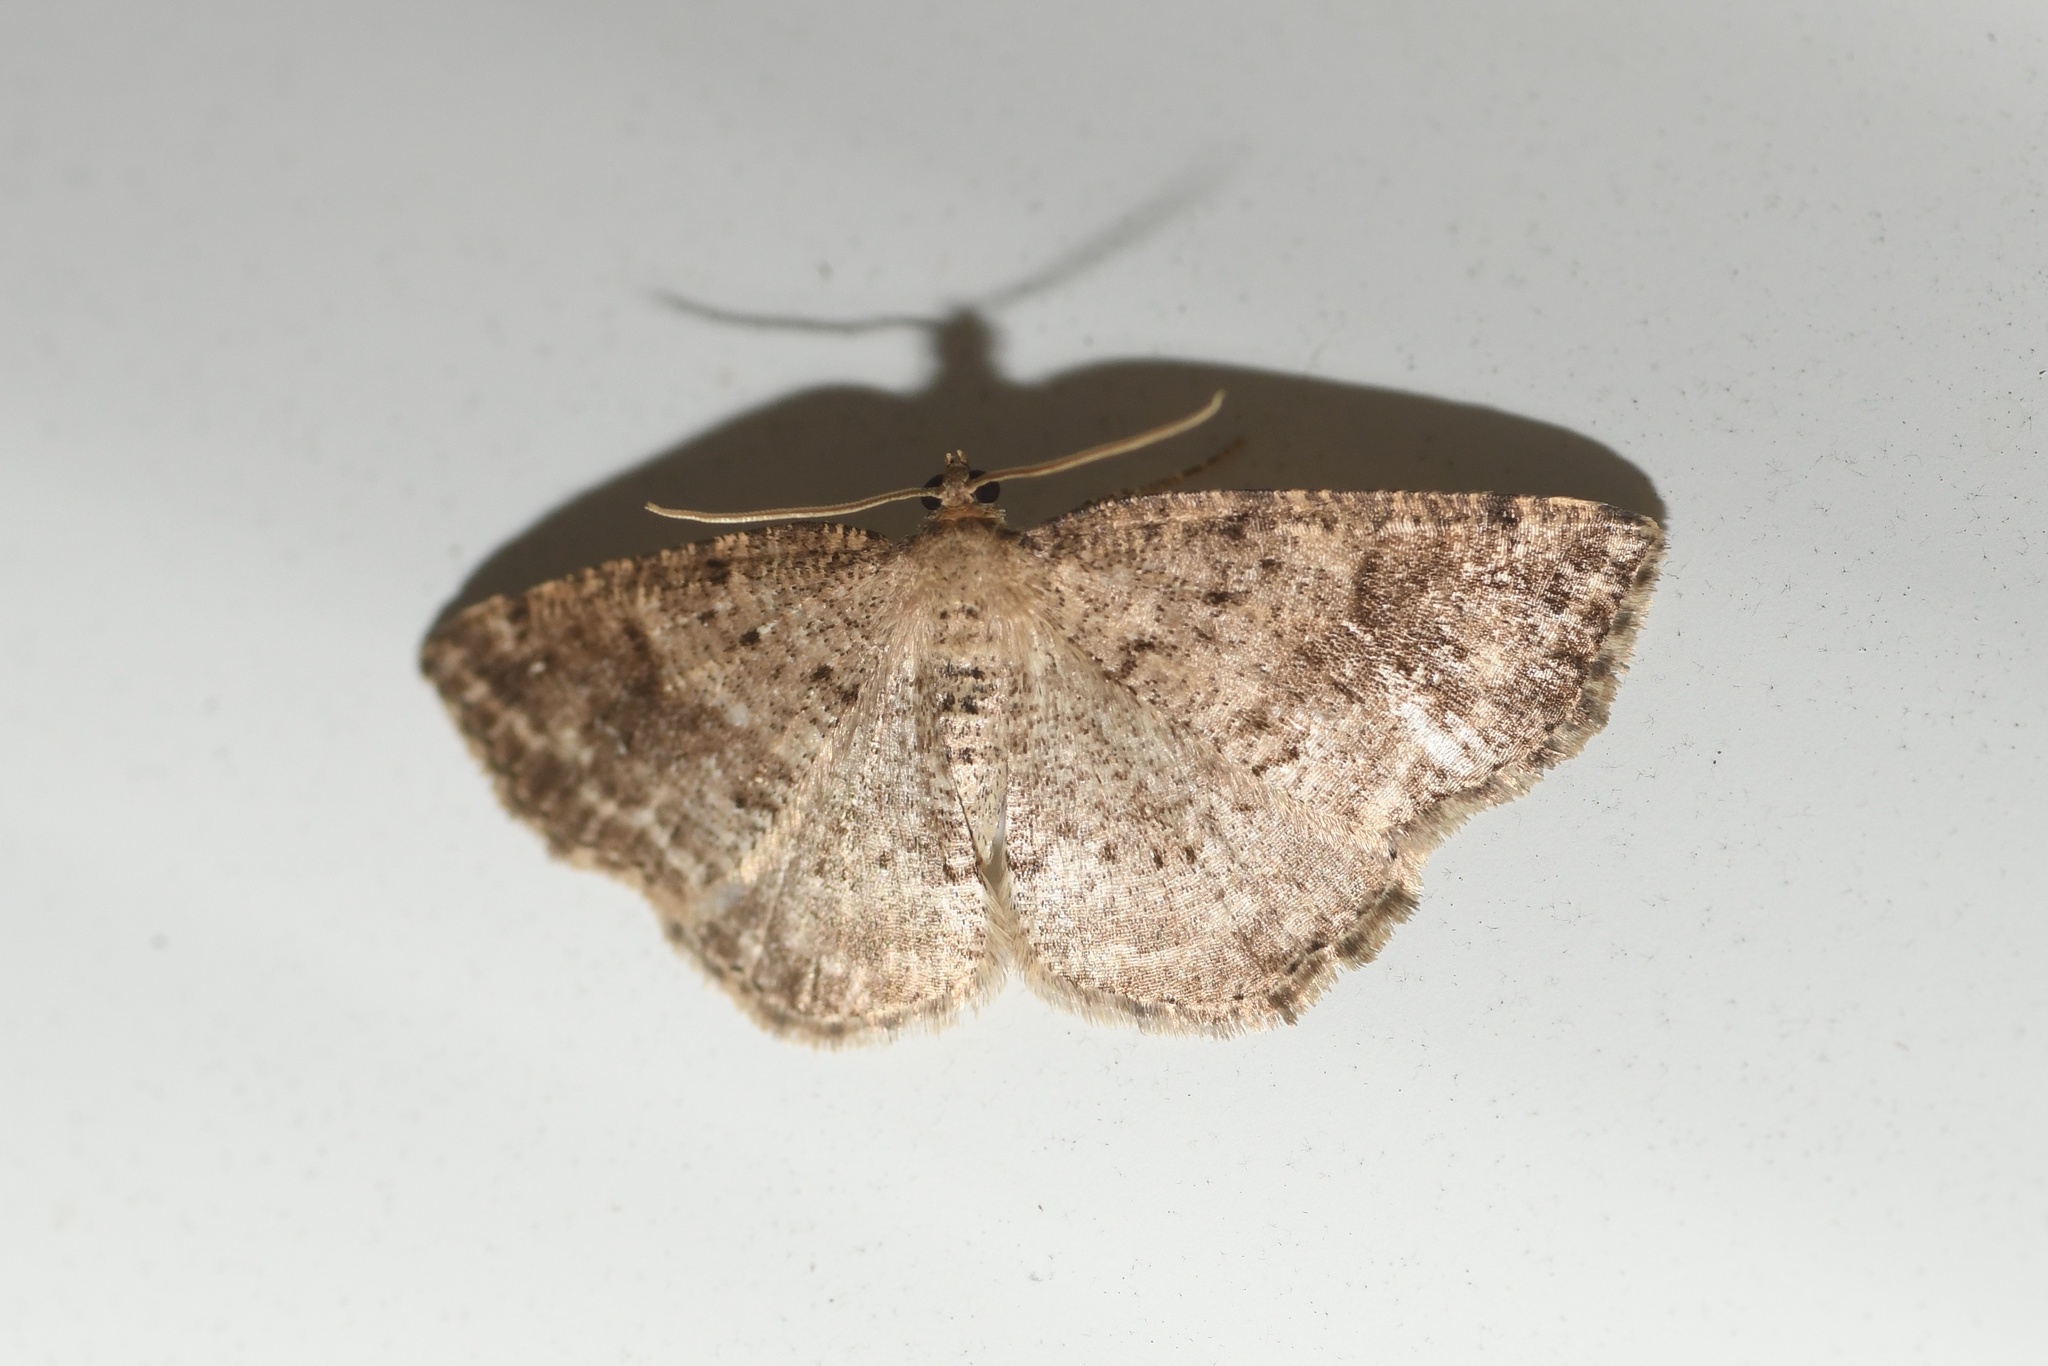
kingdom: Animalia
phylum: Arthropoda
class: Insecta
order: Lepidoptera
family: Geometridae
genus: Homochlodes
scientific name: Homochlodes fritillaria
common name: Pale homochlodes
